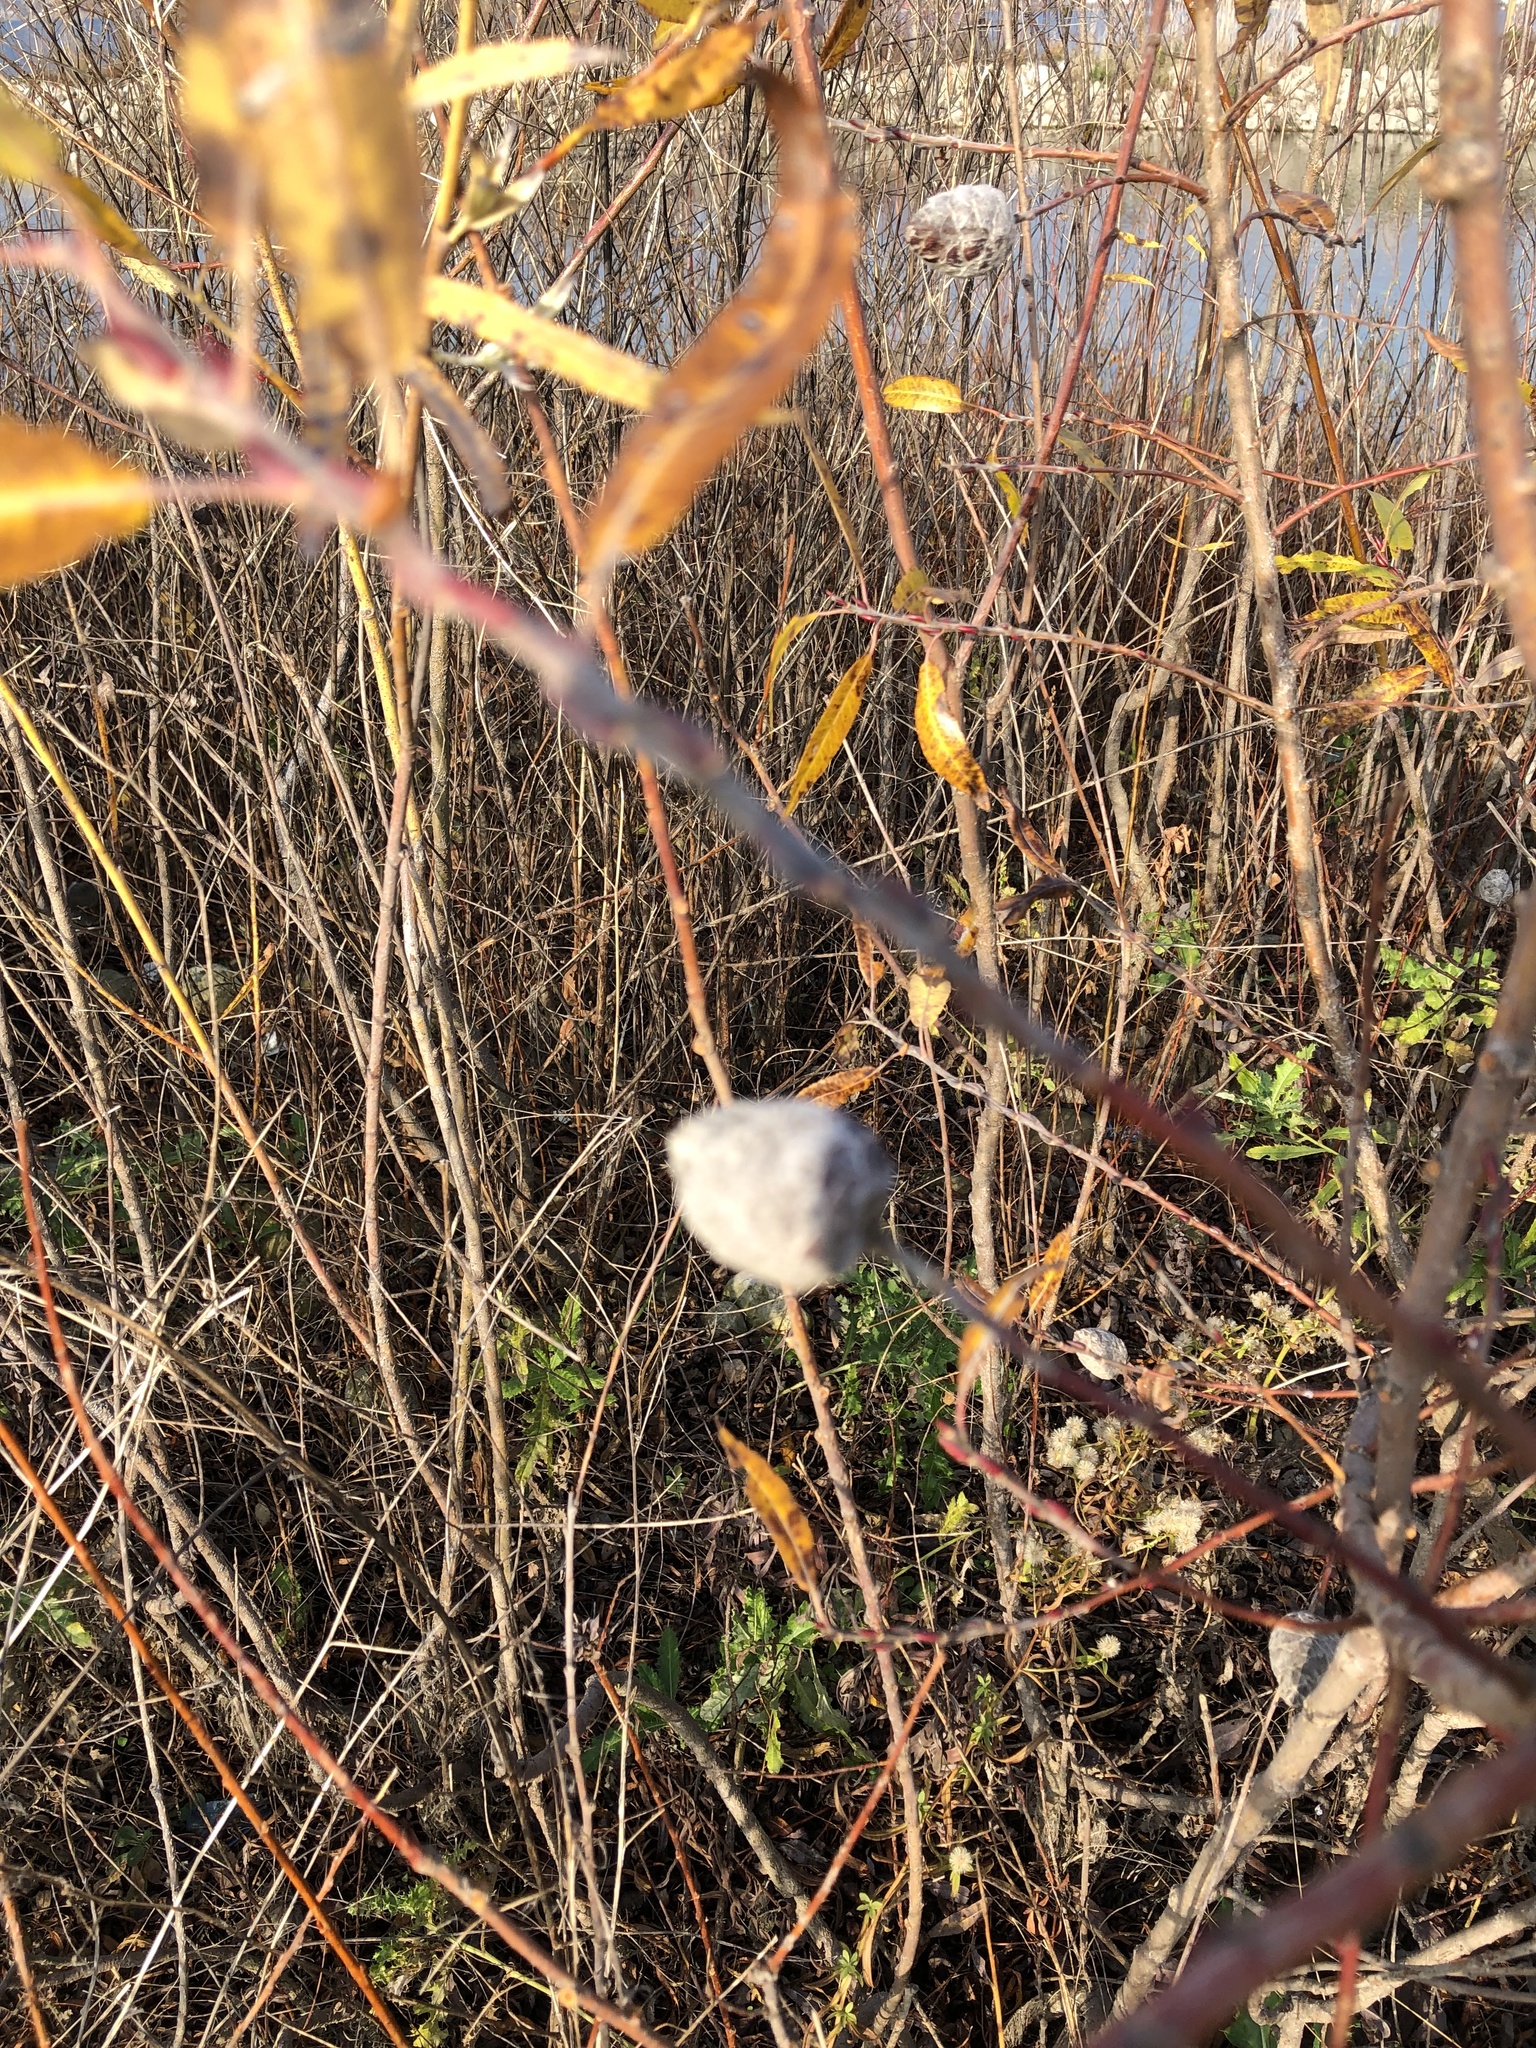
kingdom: Animalia
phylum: Arthropoda
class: Insecta
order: Diptera
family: Cecidomyiidae
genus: Rabdophaga
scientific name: Rabdophaga strobiloides
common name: Willow pinecone gall midge
